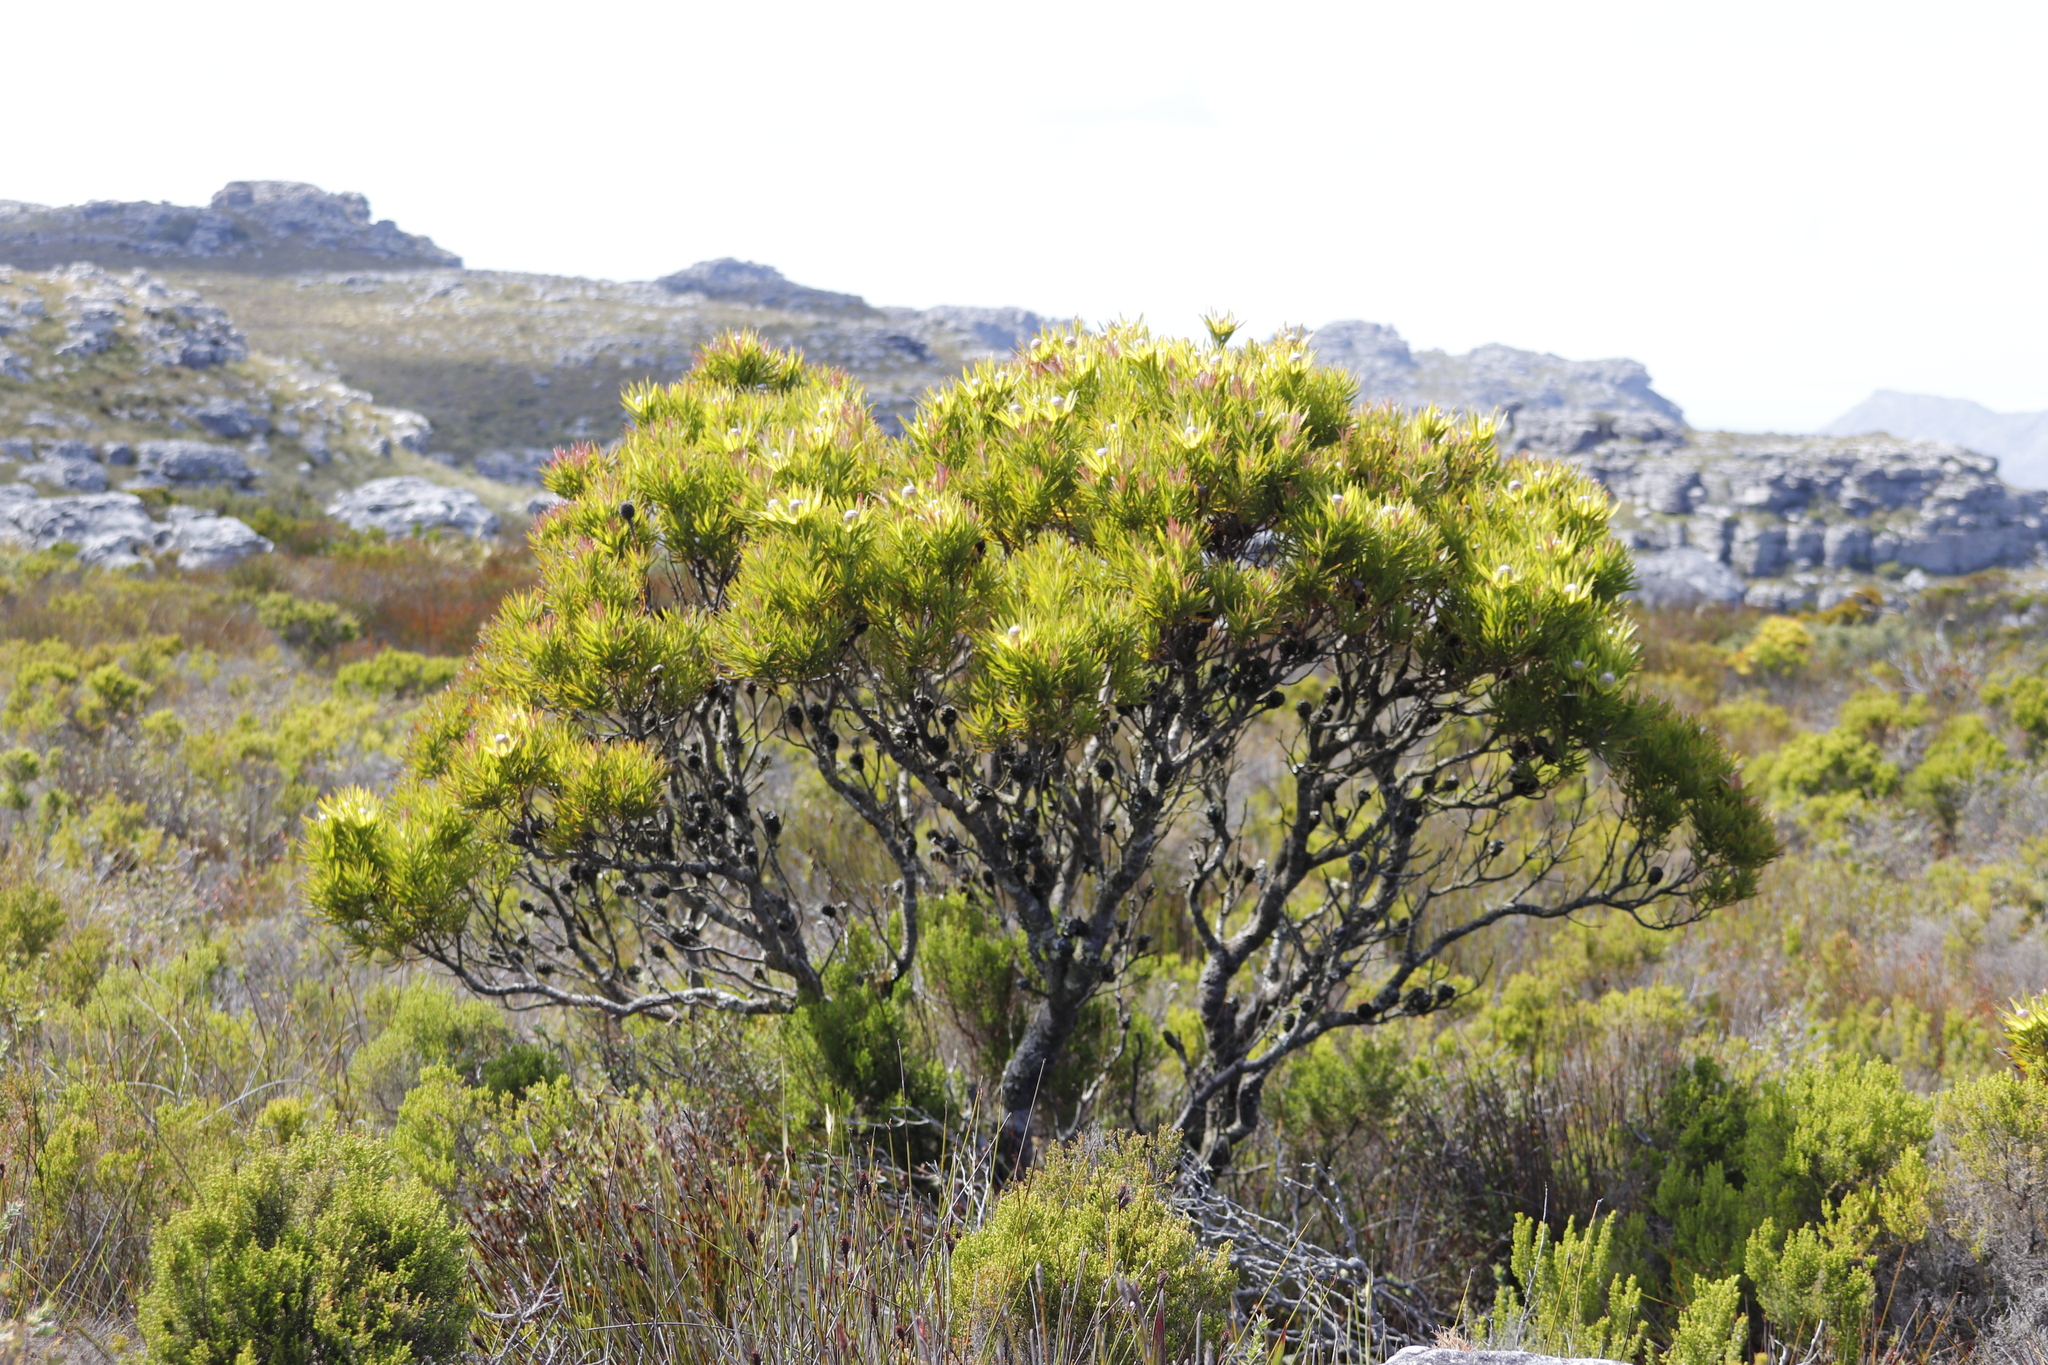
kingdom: Plantae
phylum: Tracheophyta
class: Magnoliopsida
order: Proteales
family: Proteaceae
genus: Leucadendron
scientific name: Leucadendron xanthoconus
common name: Sickle-leaf conebush
